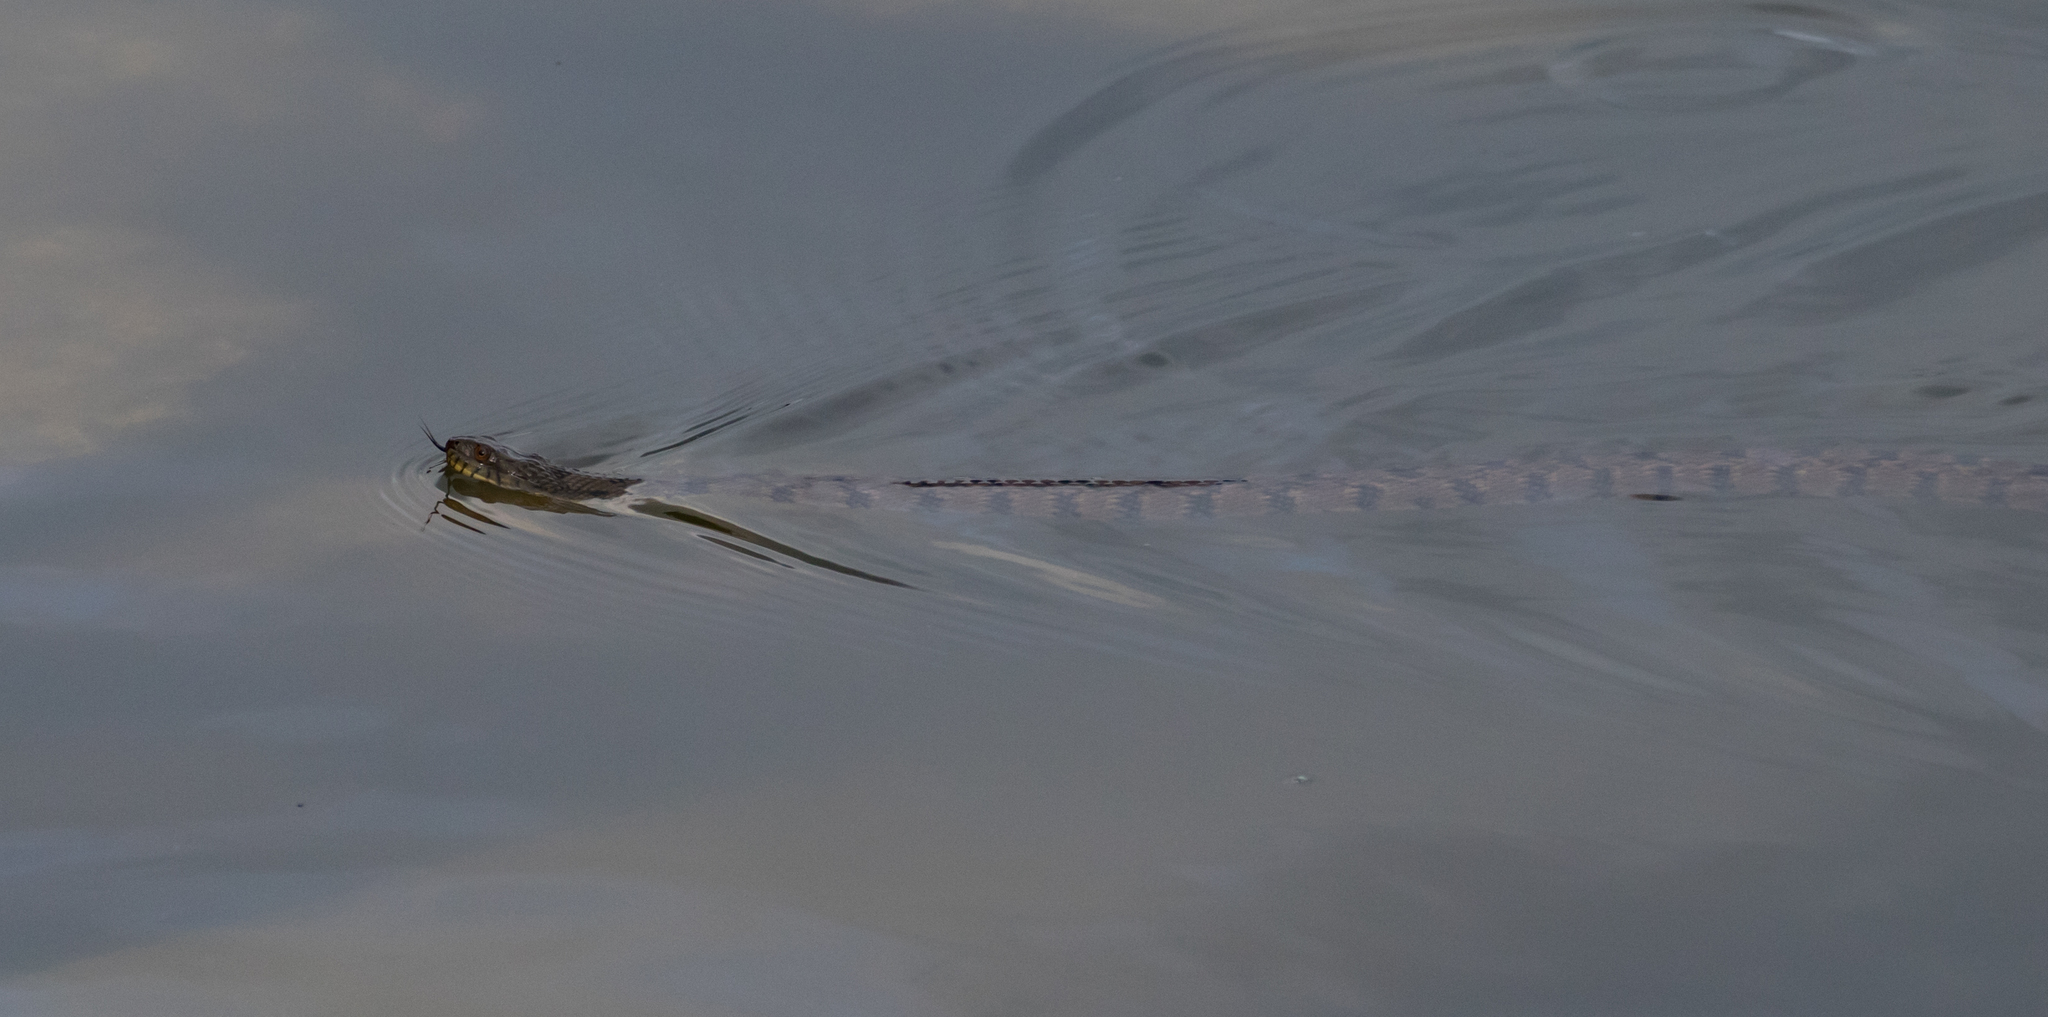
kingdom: Animalia
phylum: Chordata
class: Squamata
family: Colubridae
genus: Nerodia
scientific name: Nerodia rhombifer
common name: Diamondback water snake
